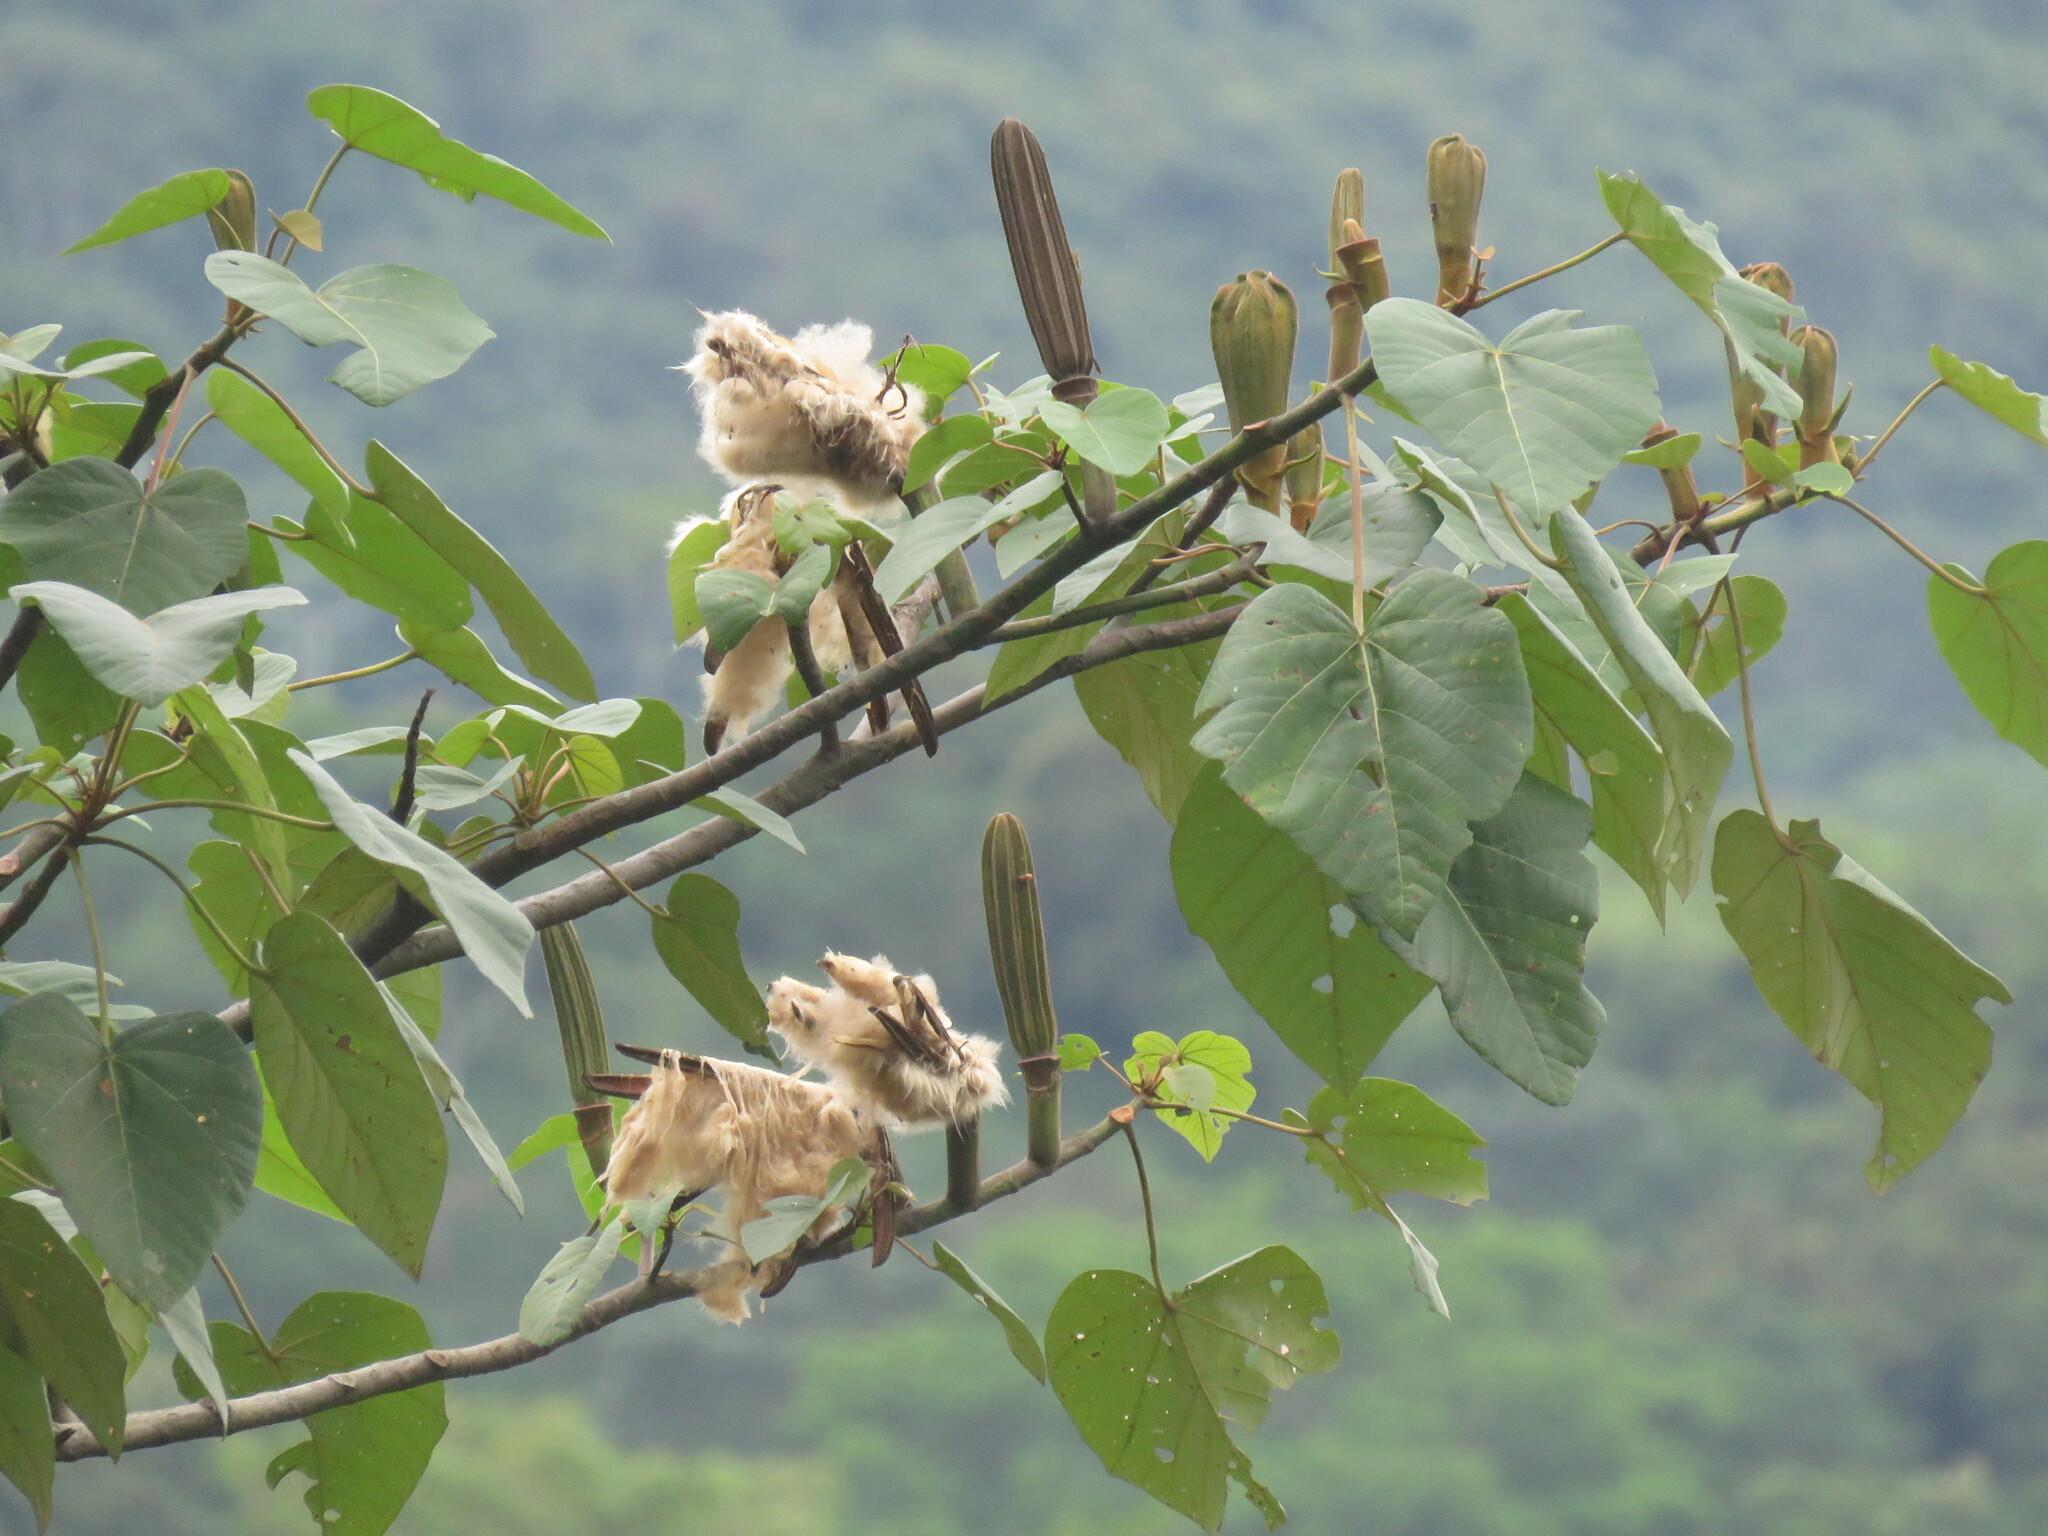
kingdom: Plantae
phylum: Tracheophyta
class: Magnoliopsida
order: Malvales
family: Malvaceae
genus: Ochroma
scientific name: Ochroma pyramidale
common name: Balsa
